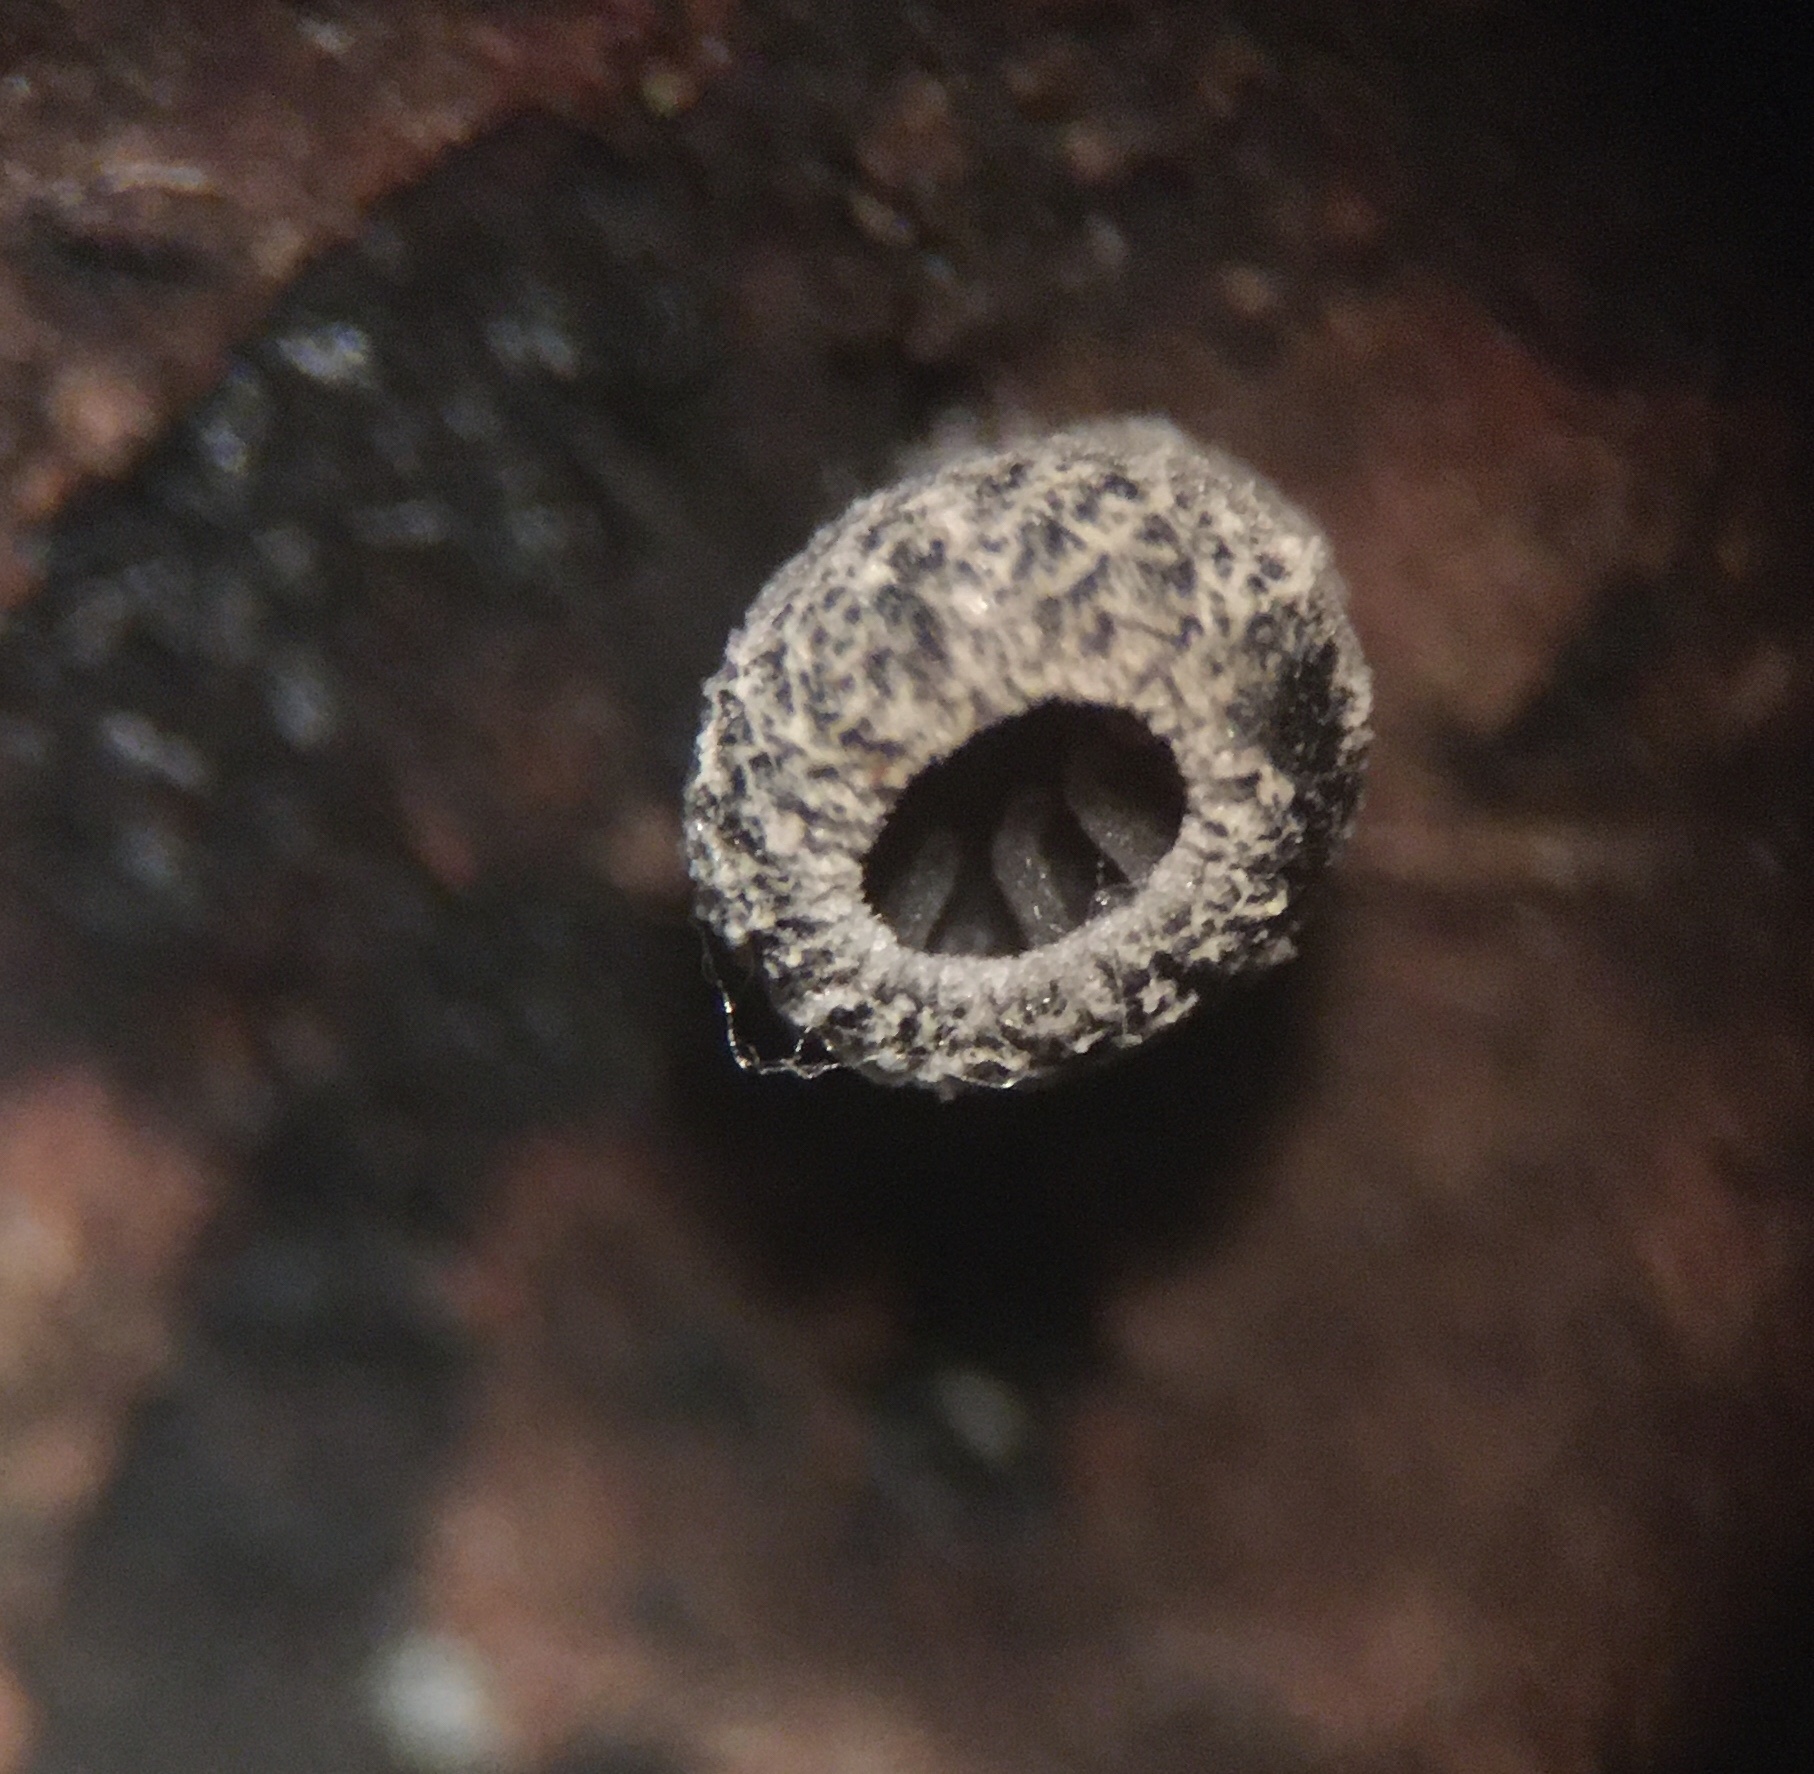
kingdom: Fungi
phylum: Basidiomycota
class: Agaricomycetes
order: Agaricales
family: Pleurotaceae
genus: Resupinatus
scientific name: Resupinatus applicatus
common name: Smoked oysterling
